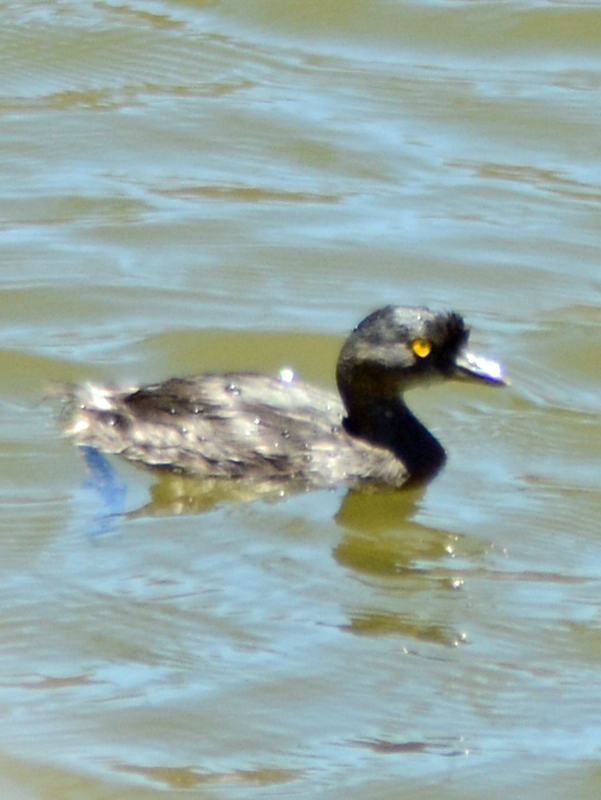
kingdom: Animalia
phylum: Chordata
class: Aves
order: Podicipediformes
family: Podicipedidae
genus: Tachybaptus
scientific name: Tachybaptus dominicus
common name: Least grebe
